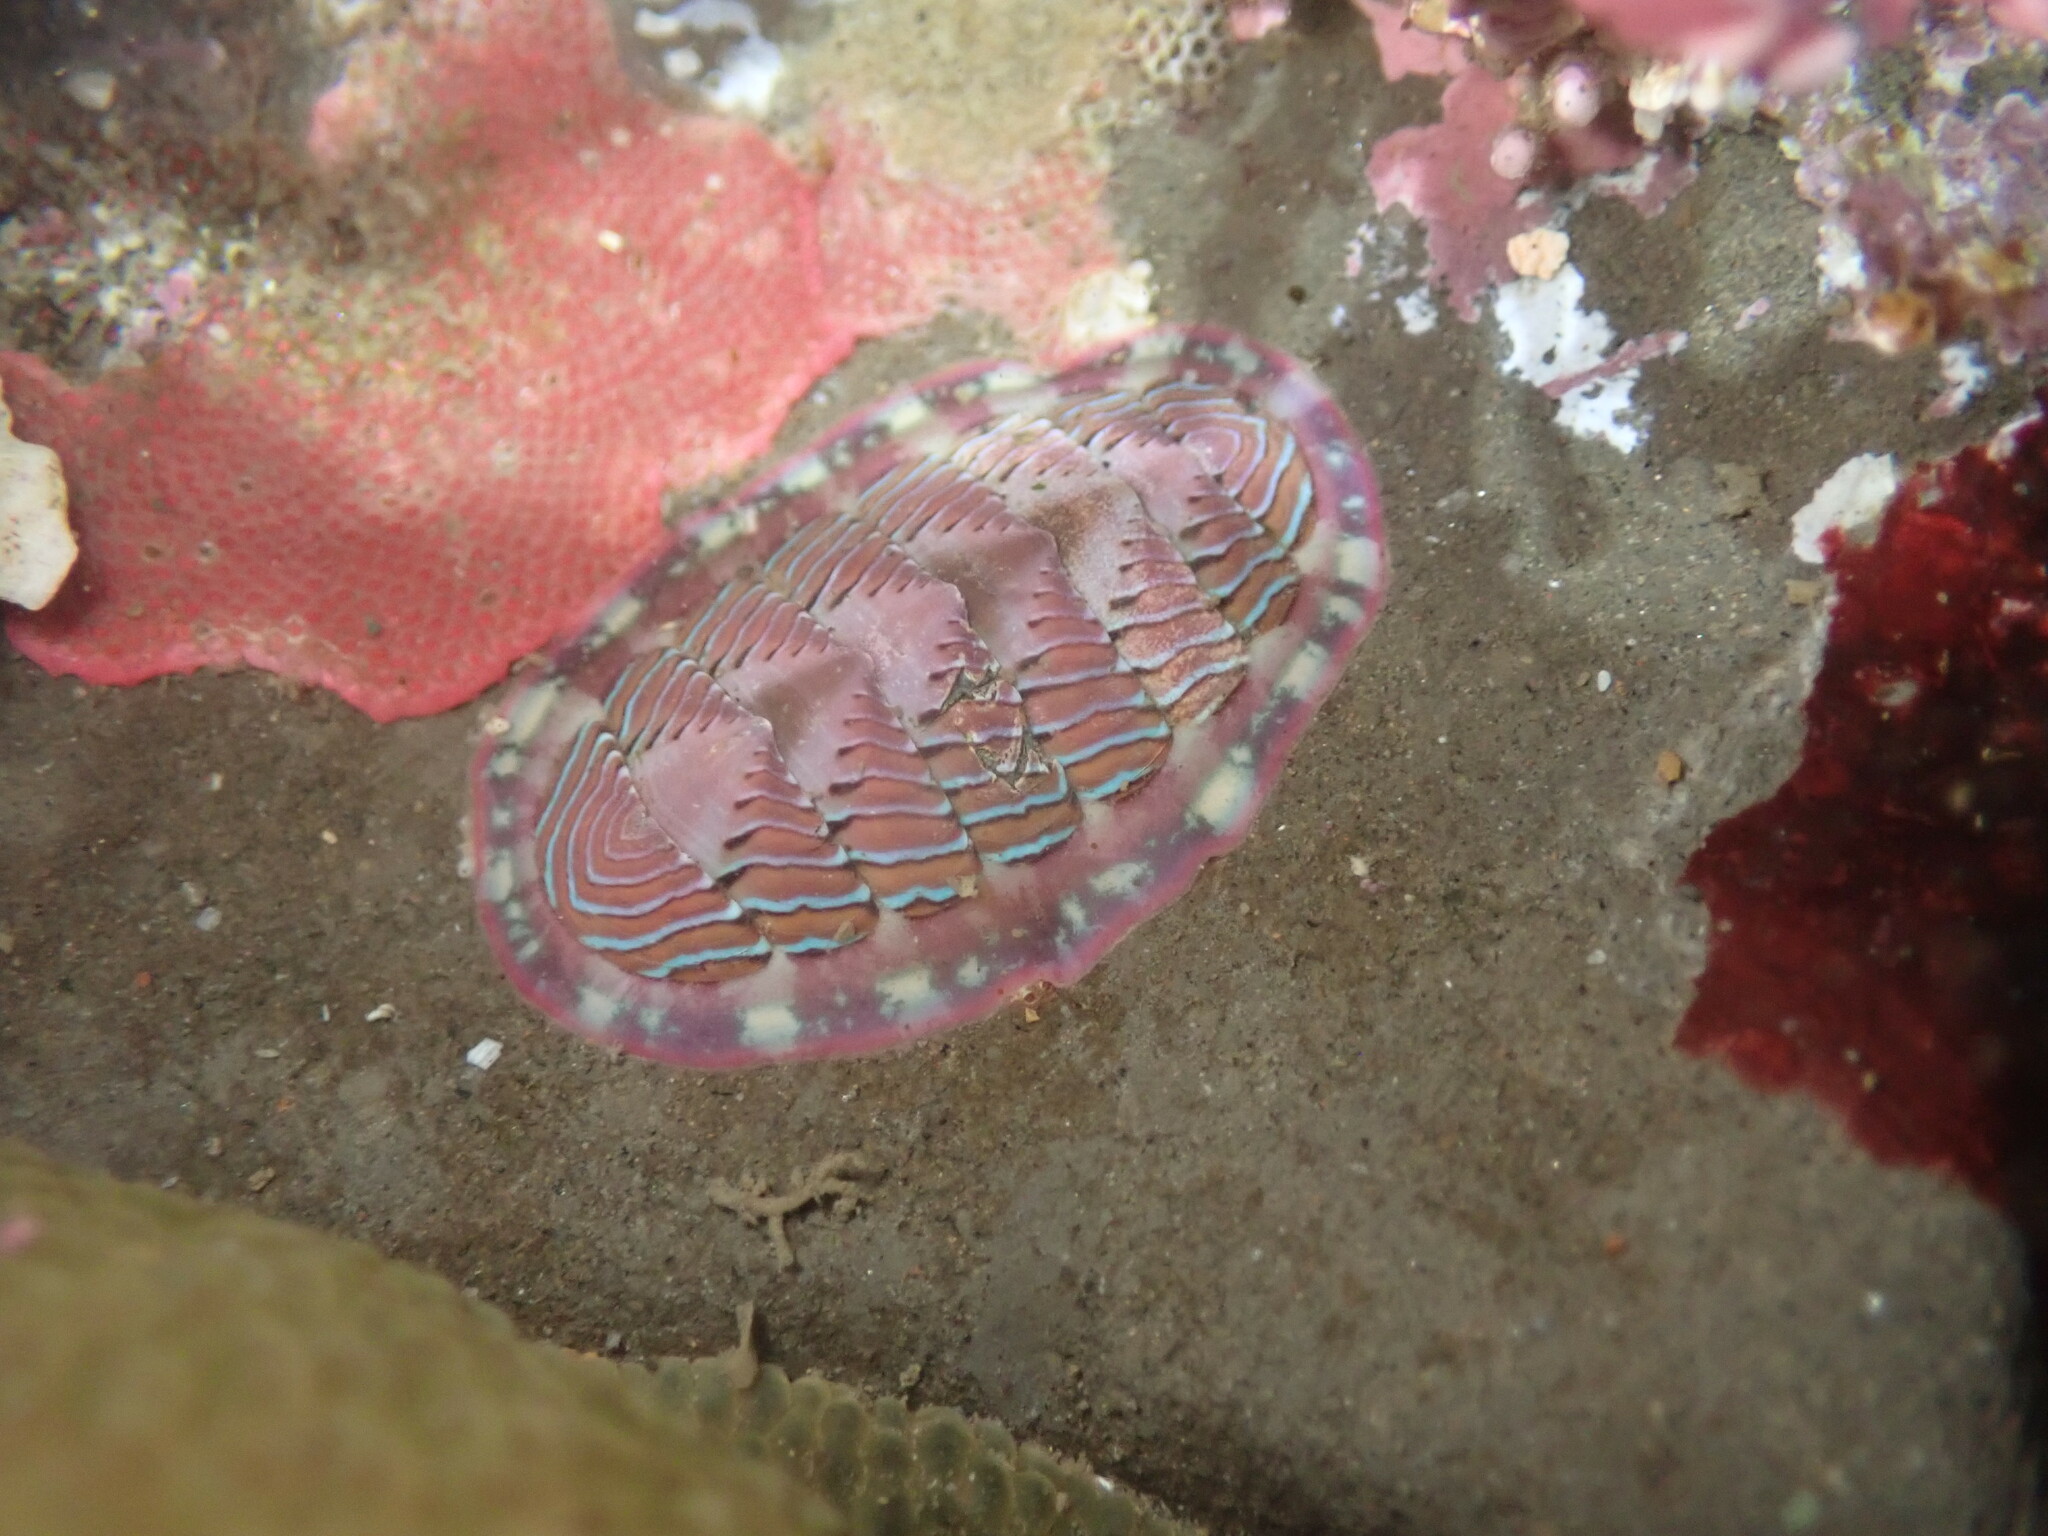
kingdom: Animalia
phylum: Mollusca
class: Polyplacophora
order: Chitonida
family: Tonicellidae
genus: Tonicella
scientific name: Tonicella lineata
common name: Lined chiton
